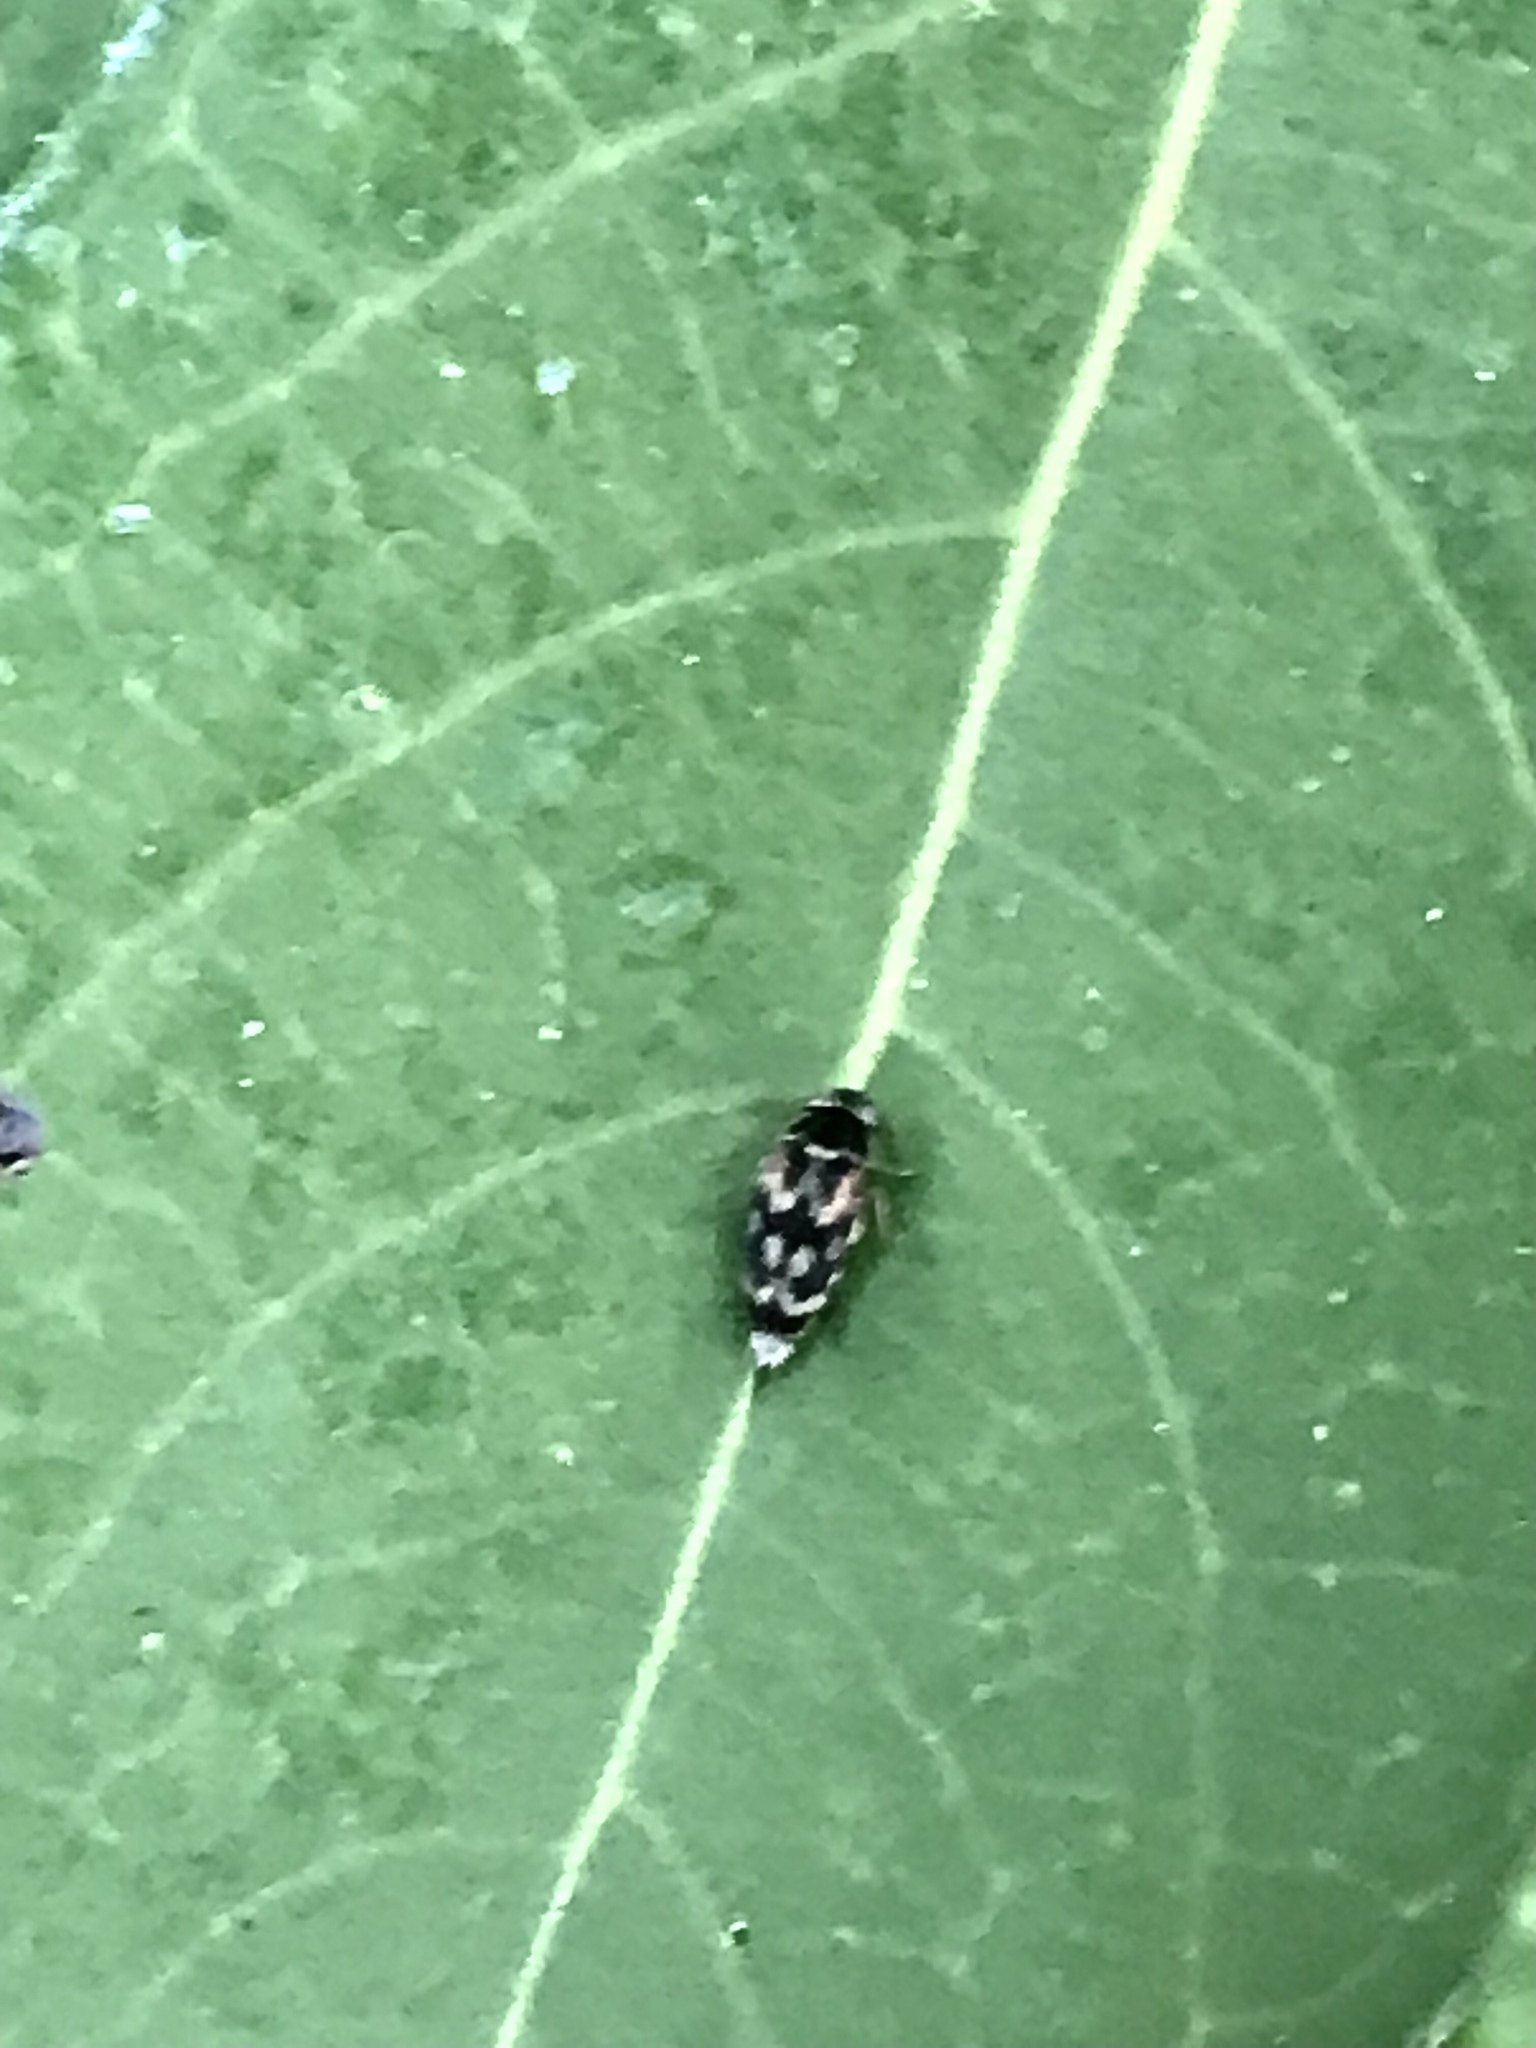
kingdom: Animalia
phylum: Arthropoda
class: Insecta
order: Coleoptera
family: Mordellidae
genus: Paramordellaria
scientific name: Paramordellaria carinata
